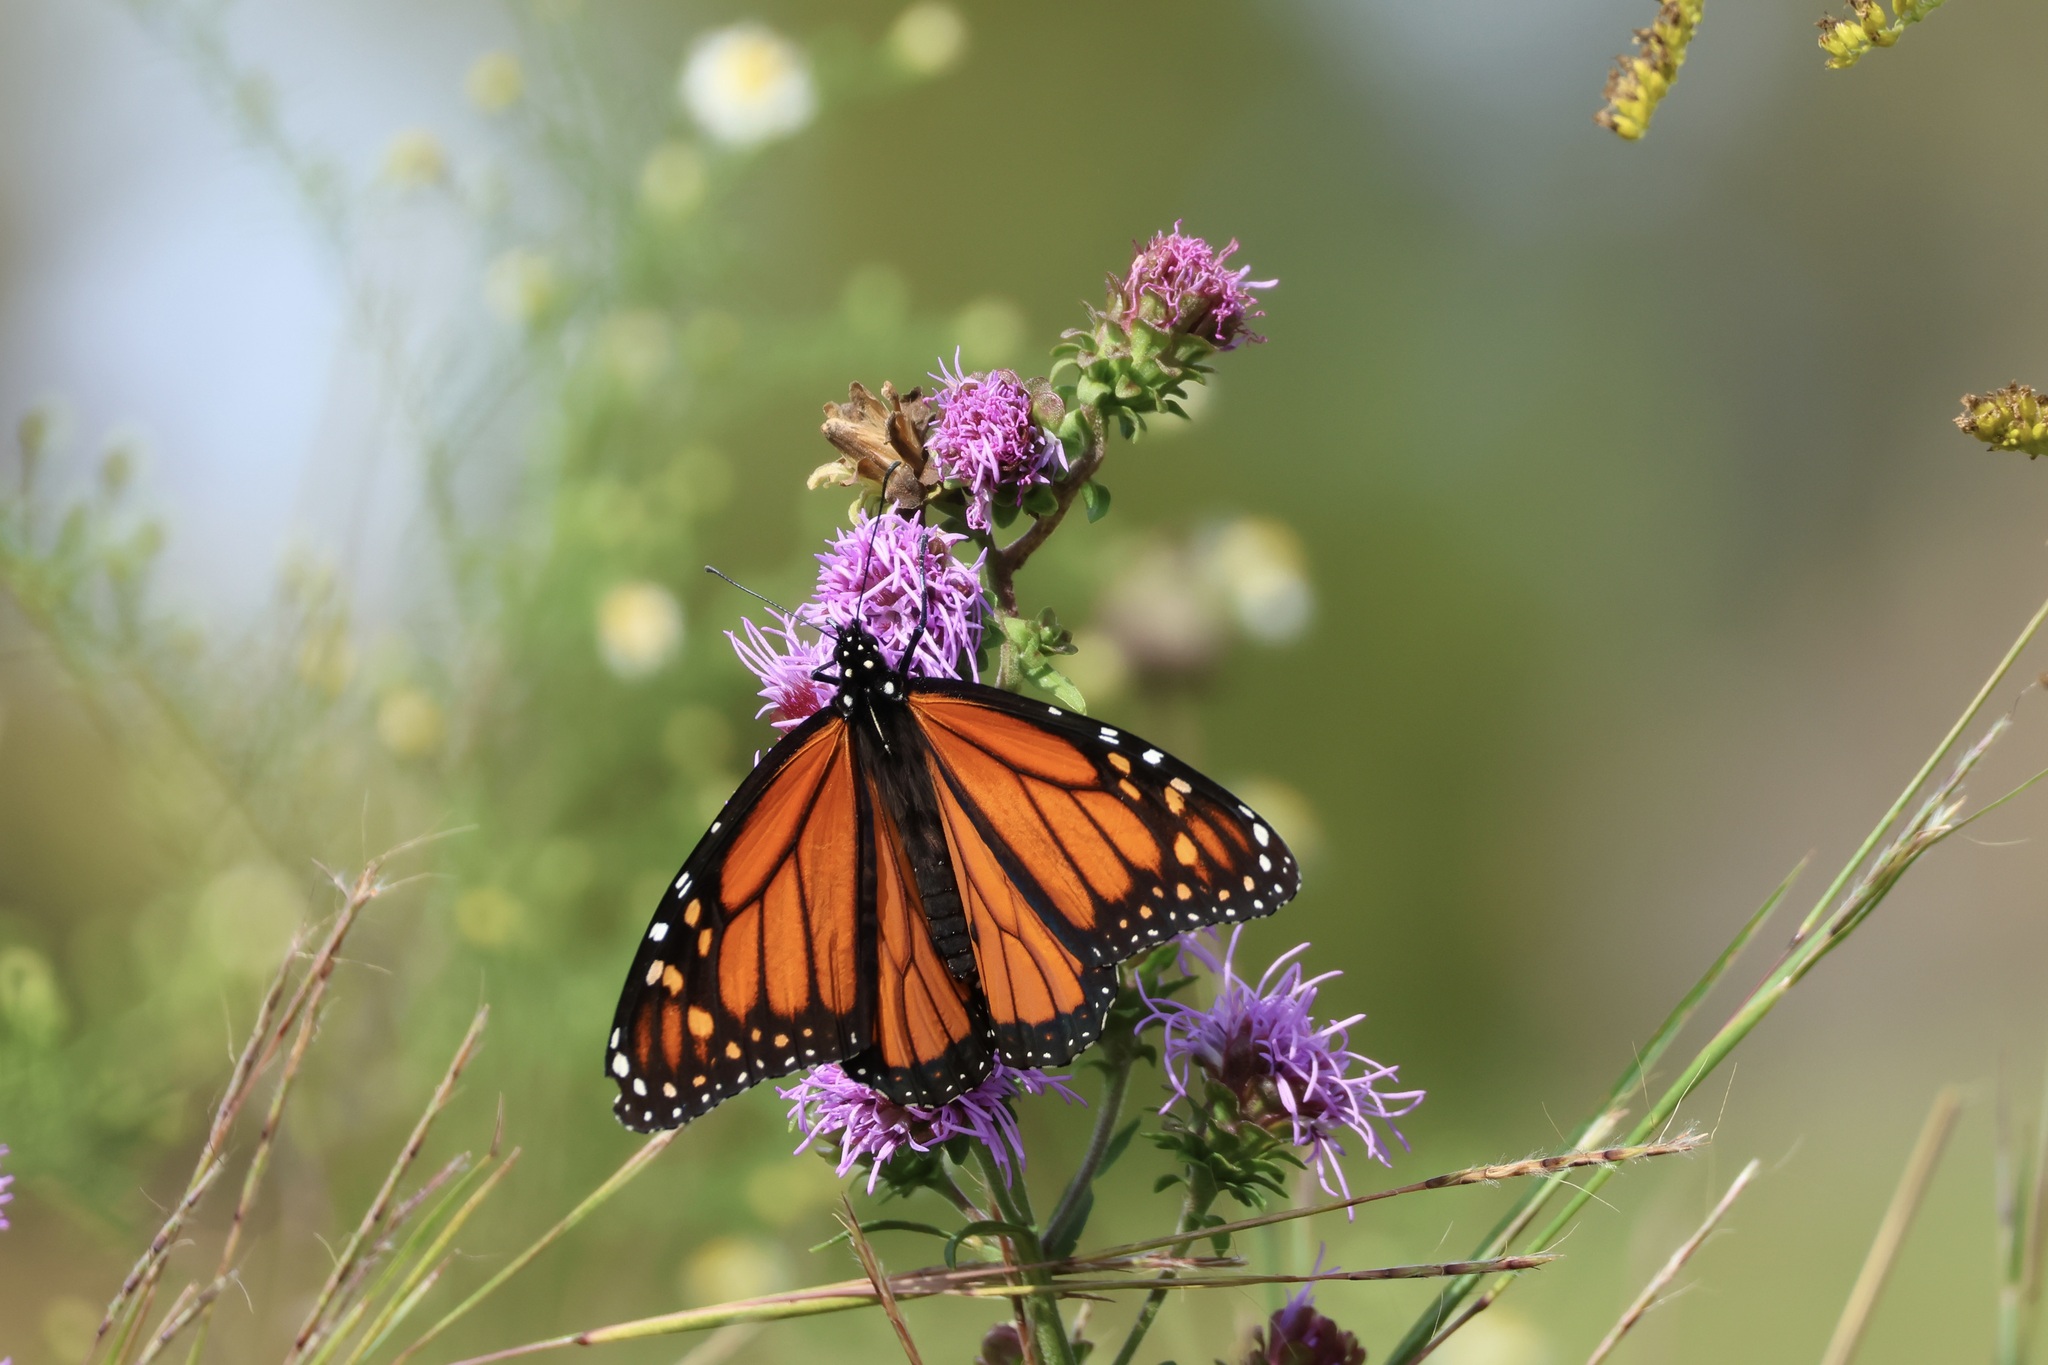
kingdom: Animalia
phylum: Arthropoda
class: Insecta
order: Lepidoptera
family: Nymphalidae
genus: Danaus
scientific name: Danaus plexippus
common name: Monarch
